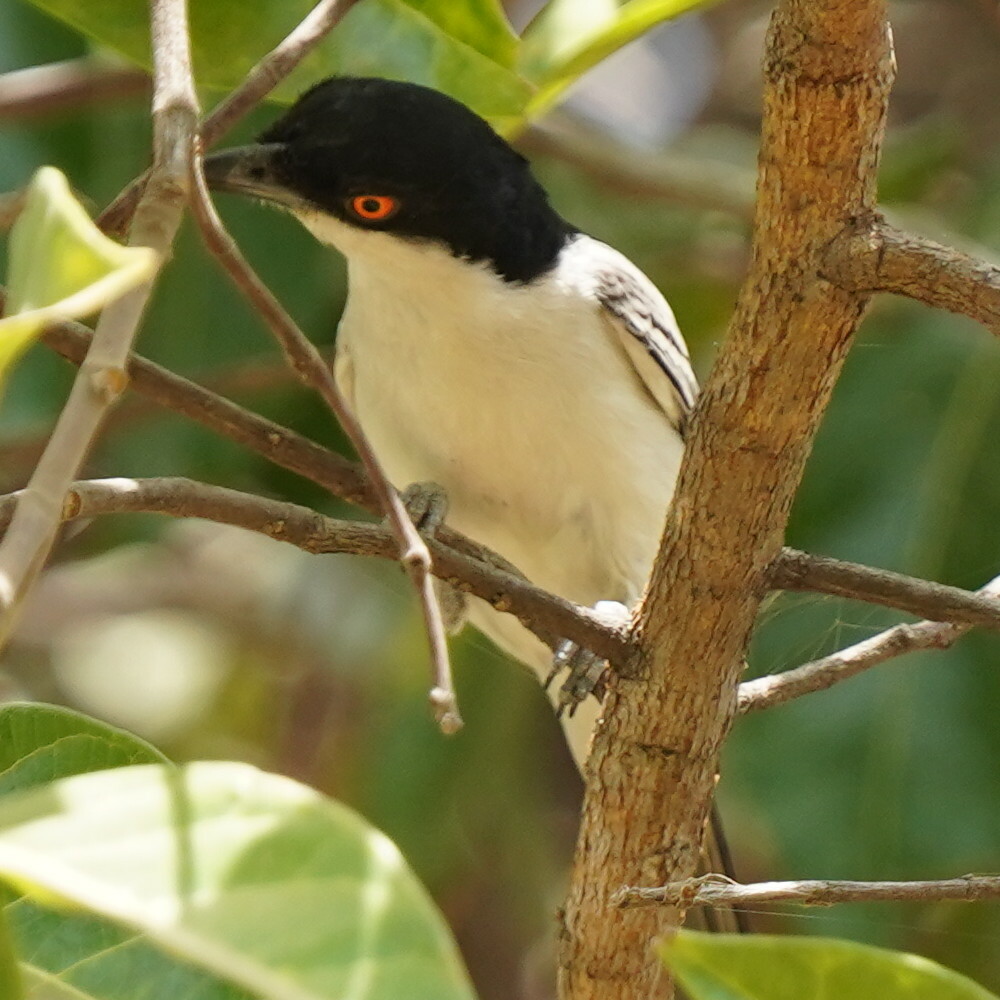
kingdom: Animalia
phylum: Chordata
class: Aves
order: Passeriformes
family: Malaconotidae
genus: Dryoscopus
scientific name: Dryoscopus gambensis
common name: Northern puffback
